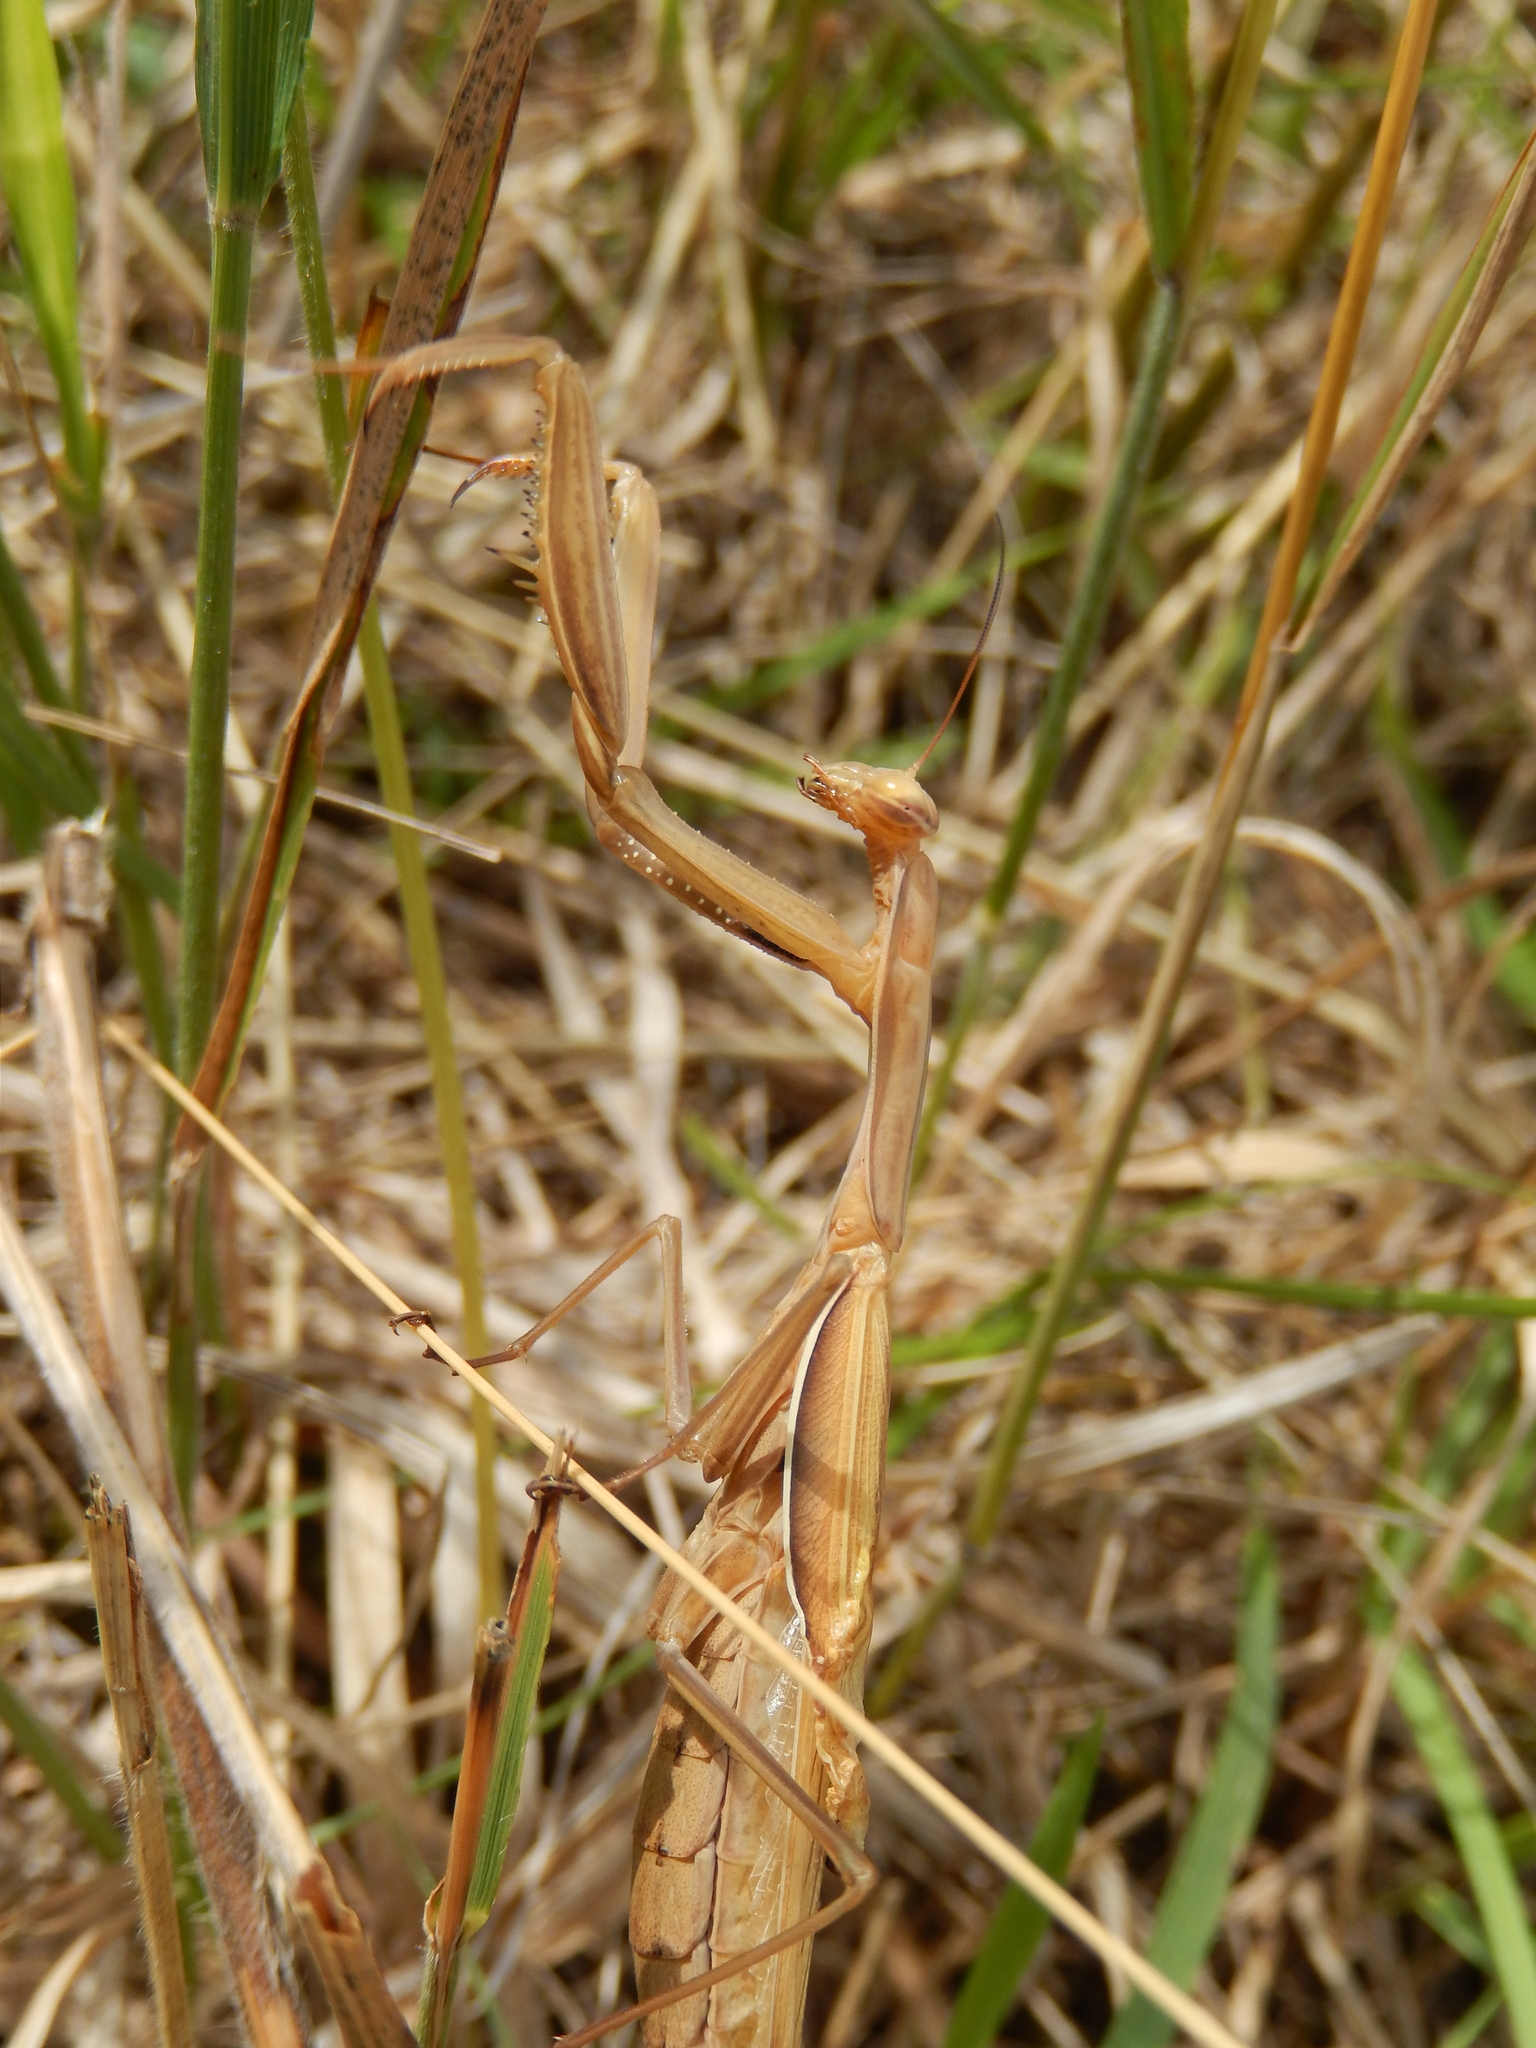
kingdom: Animalia
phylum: Arthropoda
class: Insecta
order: Mantodea
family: Mantidae
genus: Mantis
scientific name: Mantis religiosa
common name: Praying mantis
